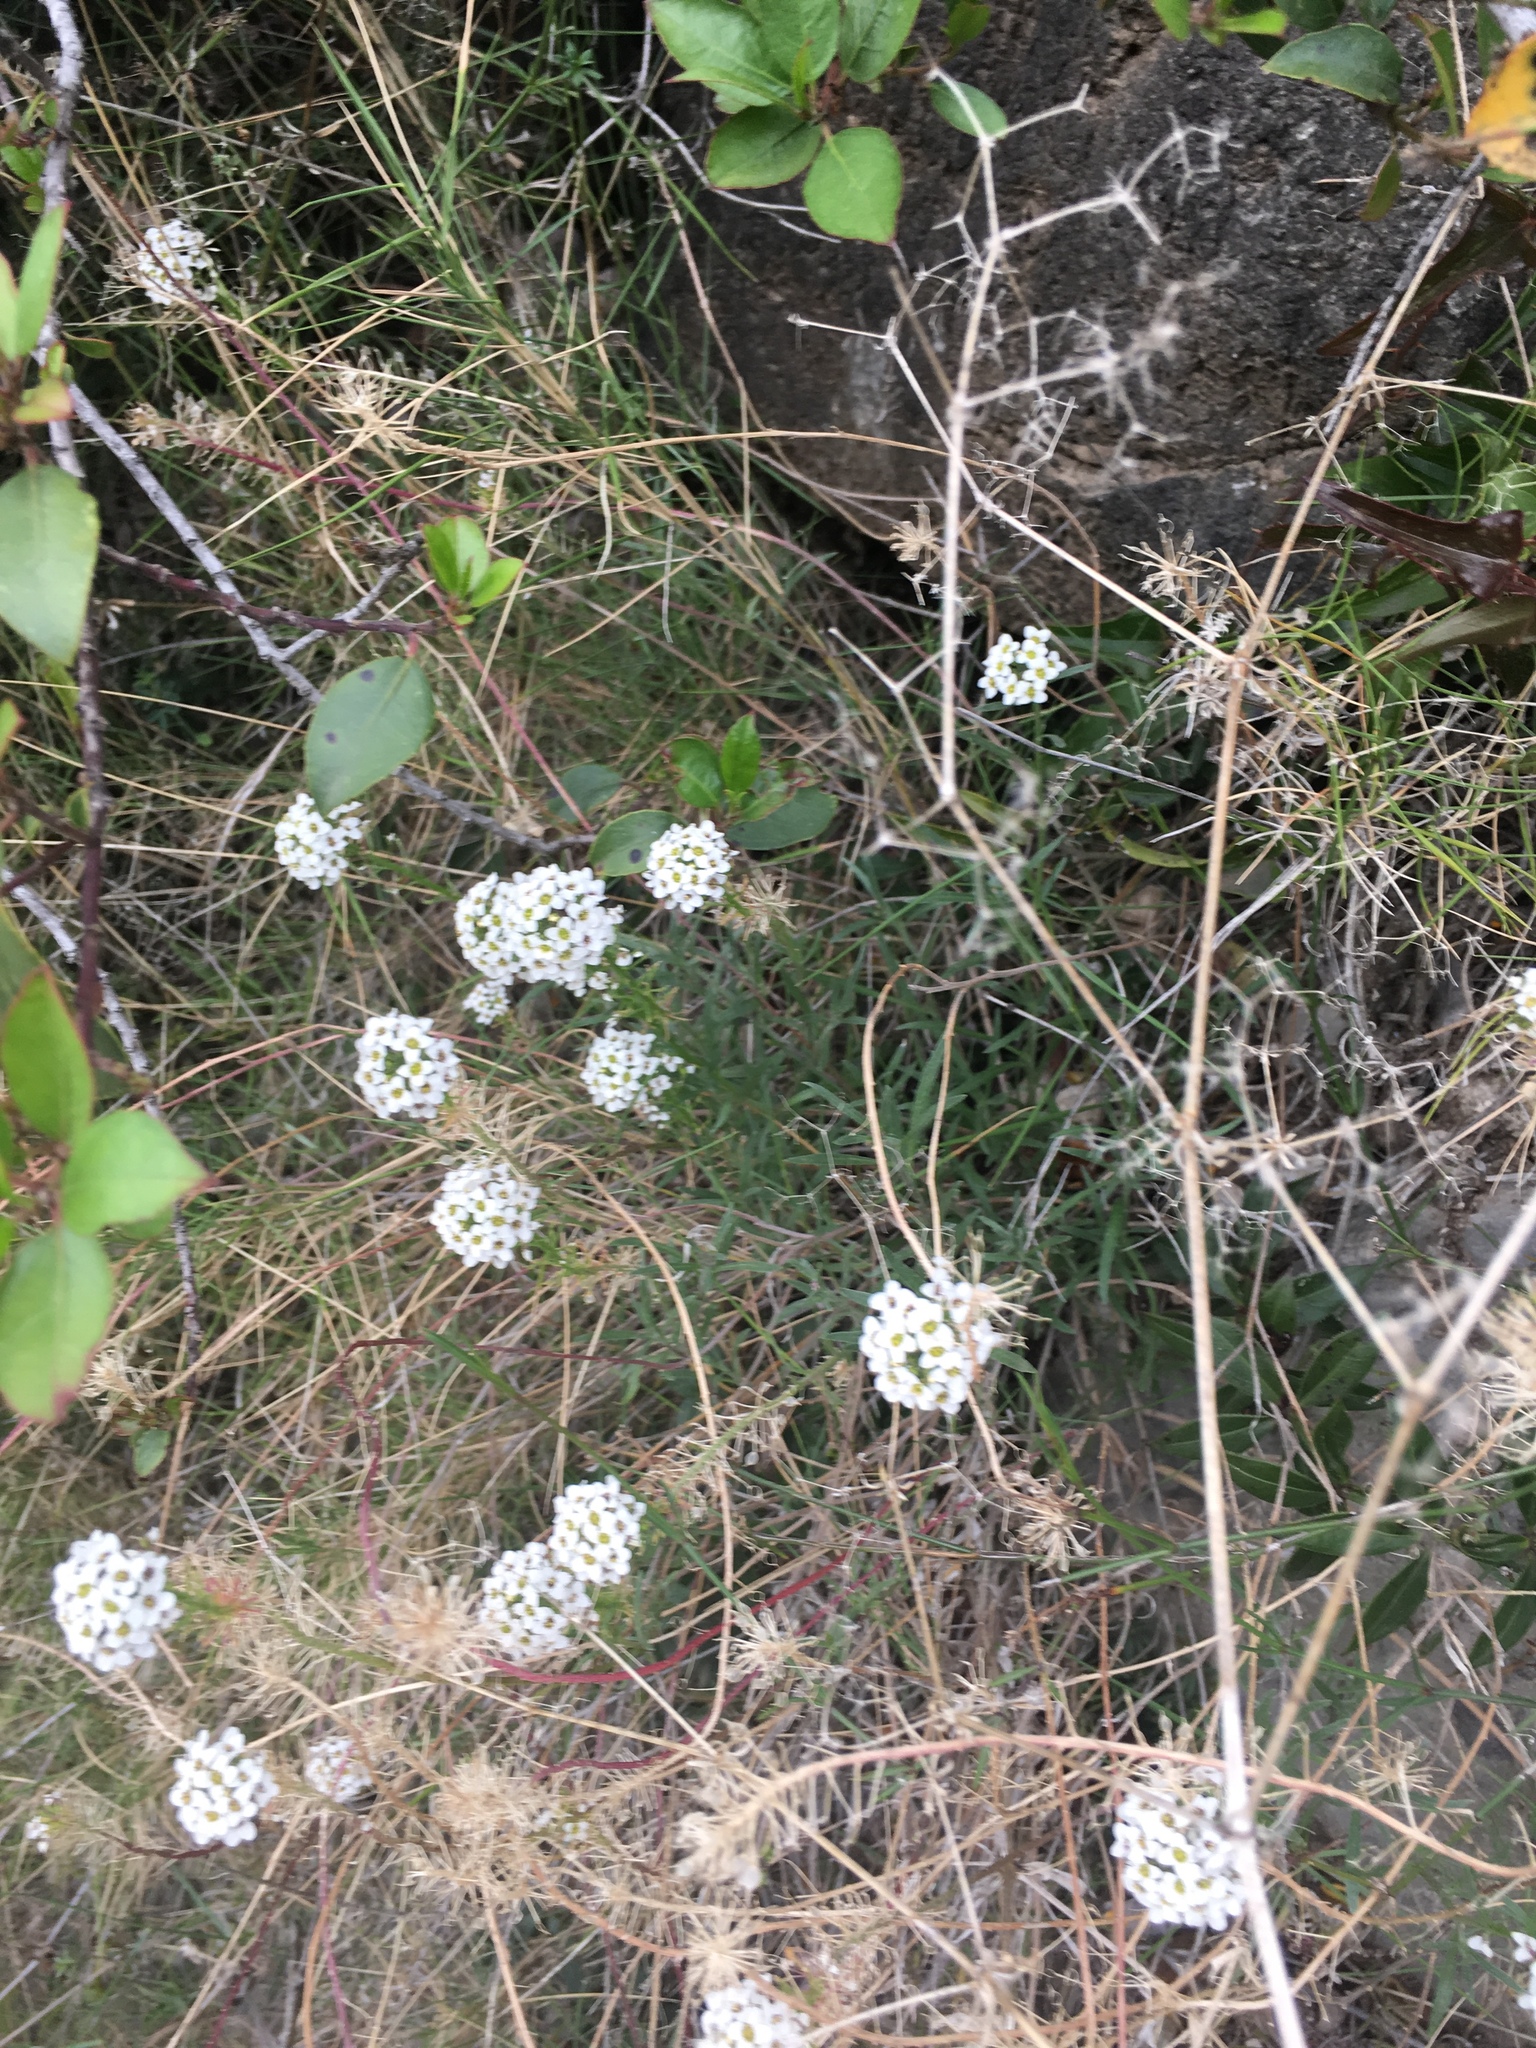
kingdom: Plantae
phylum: Tracheophyta
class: Magnoliopsida
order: Brassicales
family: Brassicaceae
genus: Lobularia
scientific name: Lobularia maritima
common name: Sweet alison
